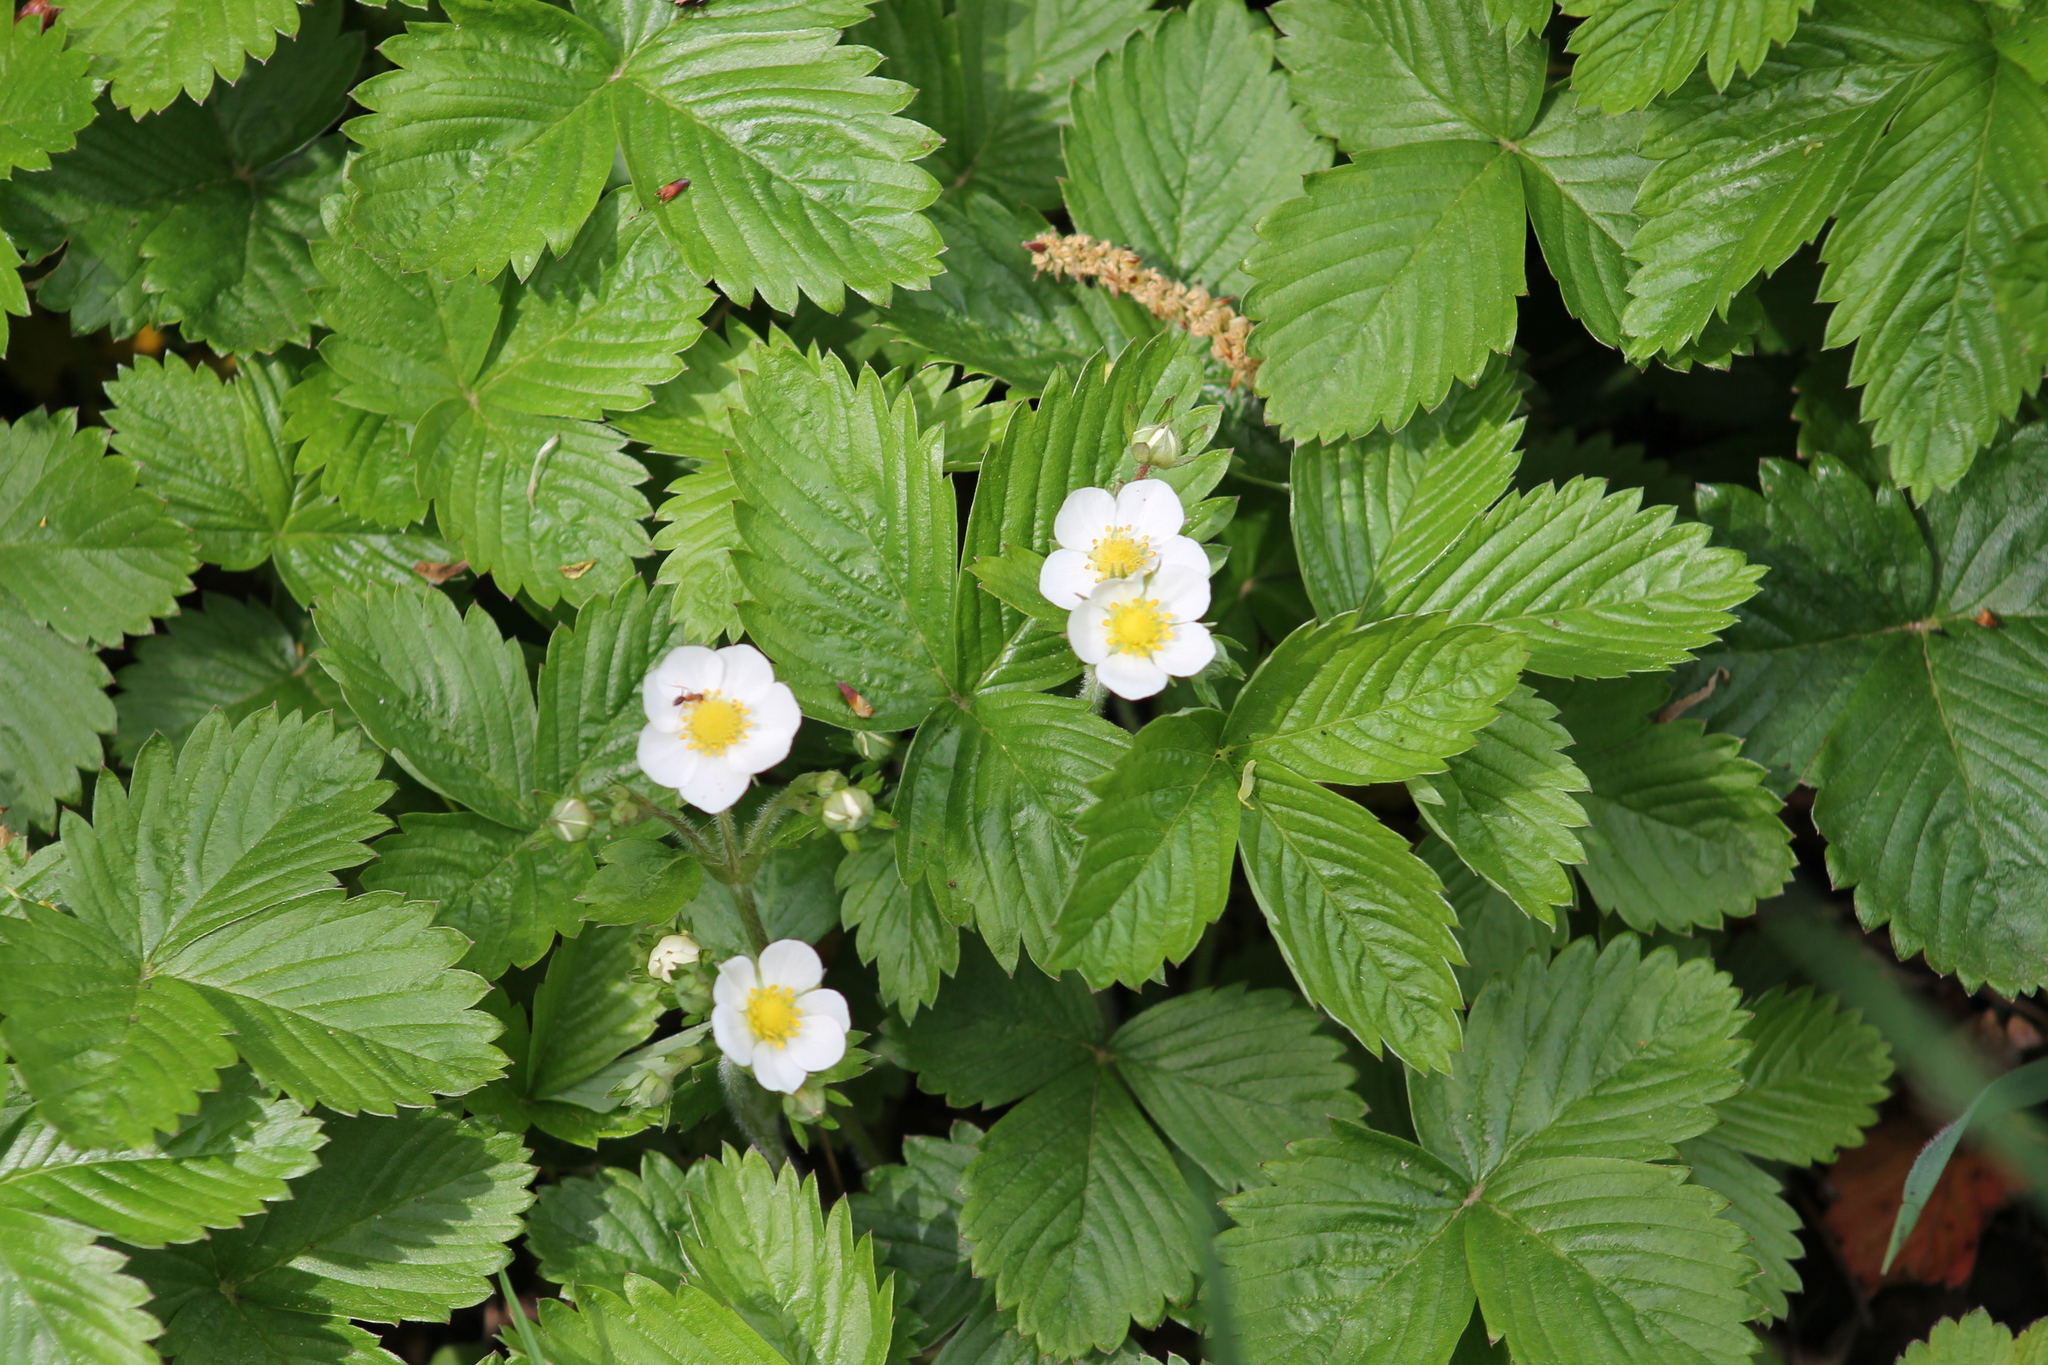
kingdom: Plantae
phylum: Tracheophyta
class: Magnoliopsida
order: Rosales
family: Rosaceae
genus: Fragaria
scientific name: Fragaria vesca
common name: Wild strawberry
